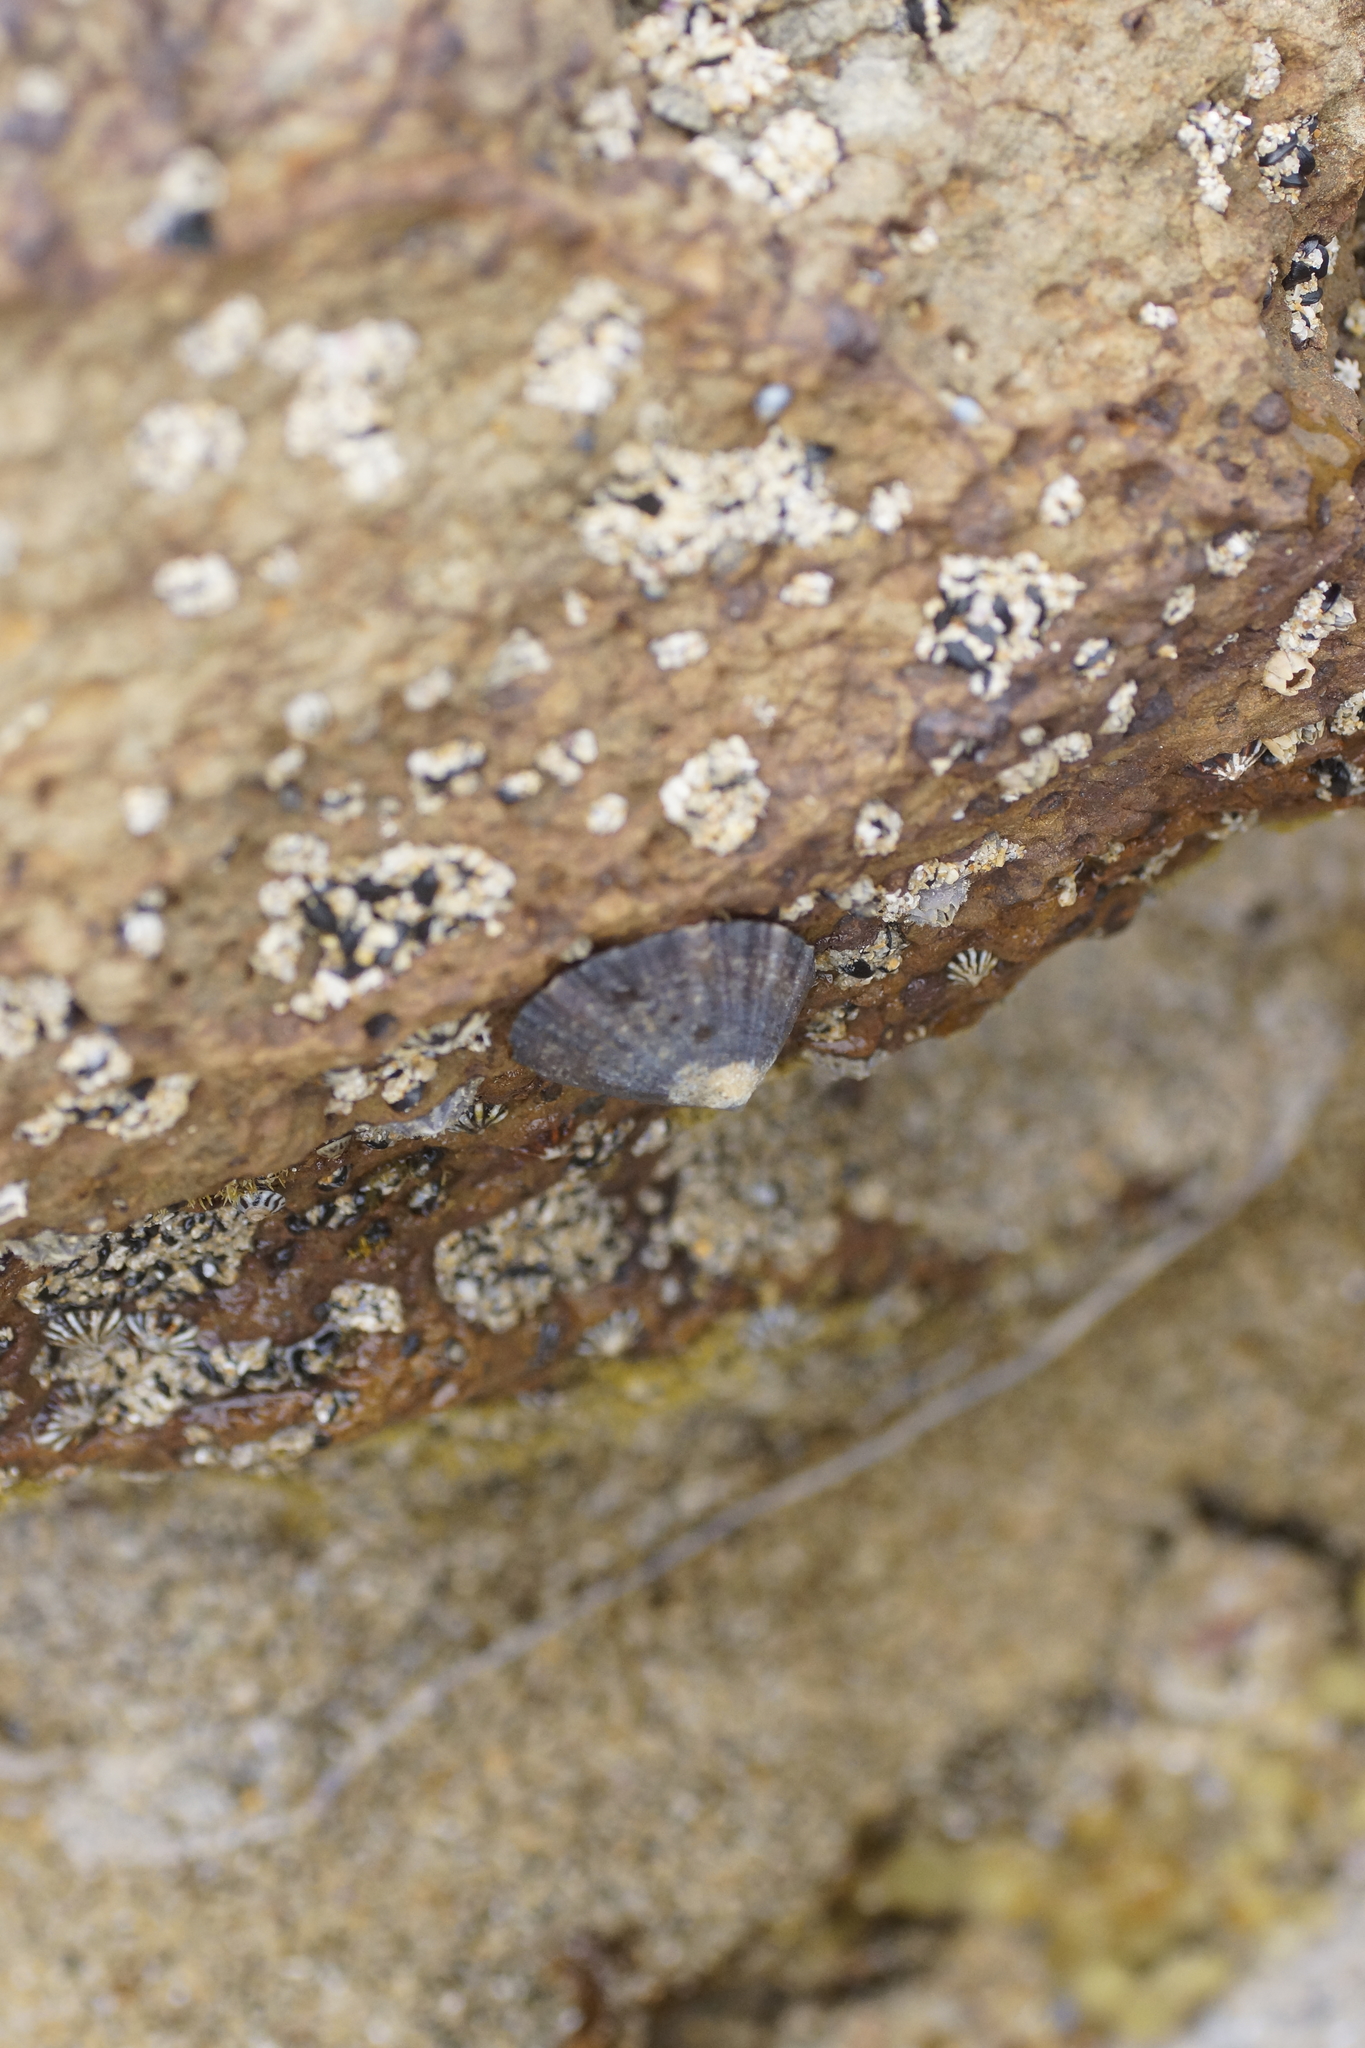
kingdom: Animalia
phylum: Mollusca
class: Gastropoda
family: Nacellidae
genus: Cellana
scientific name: Cellana tramoserica
